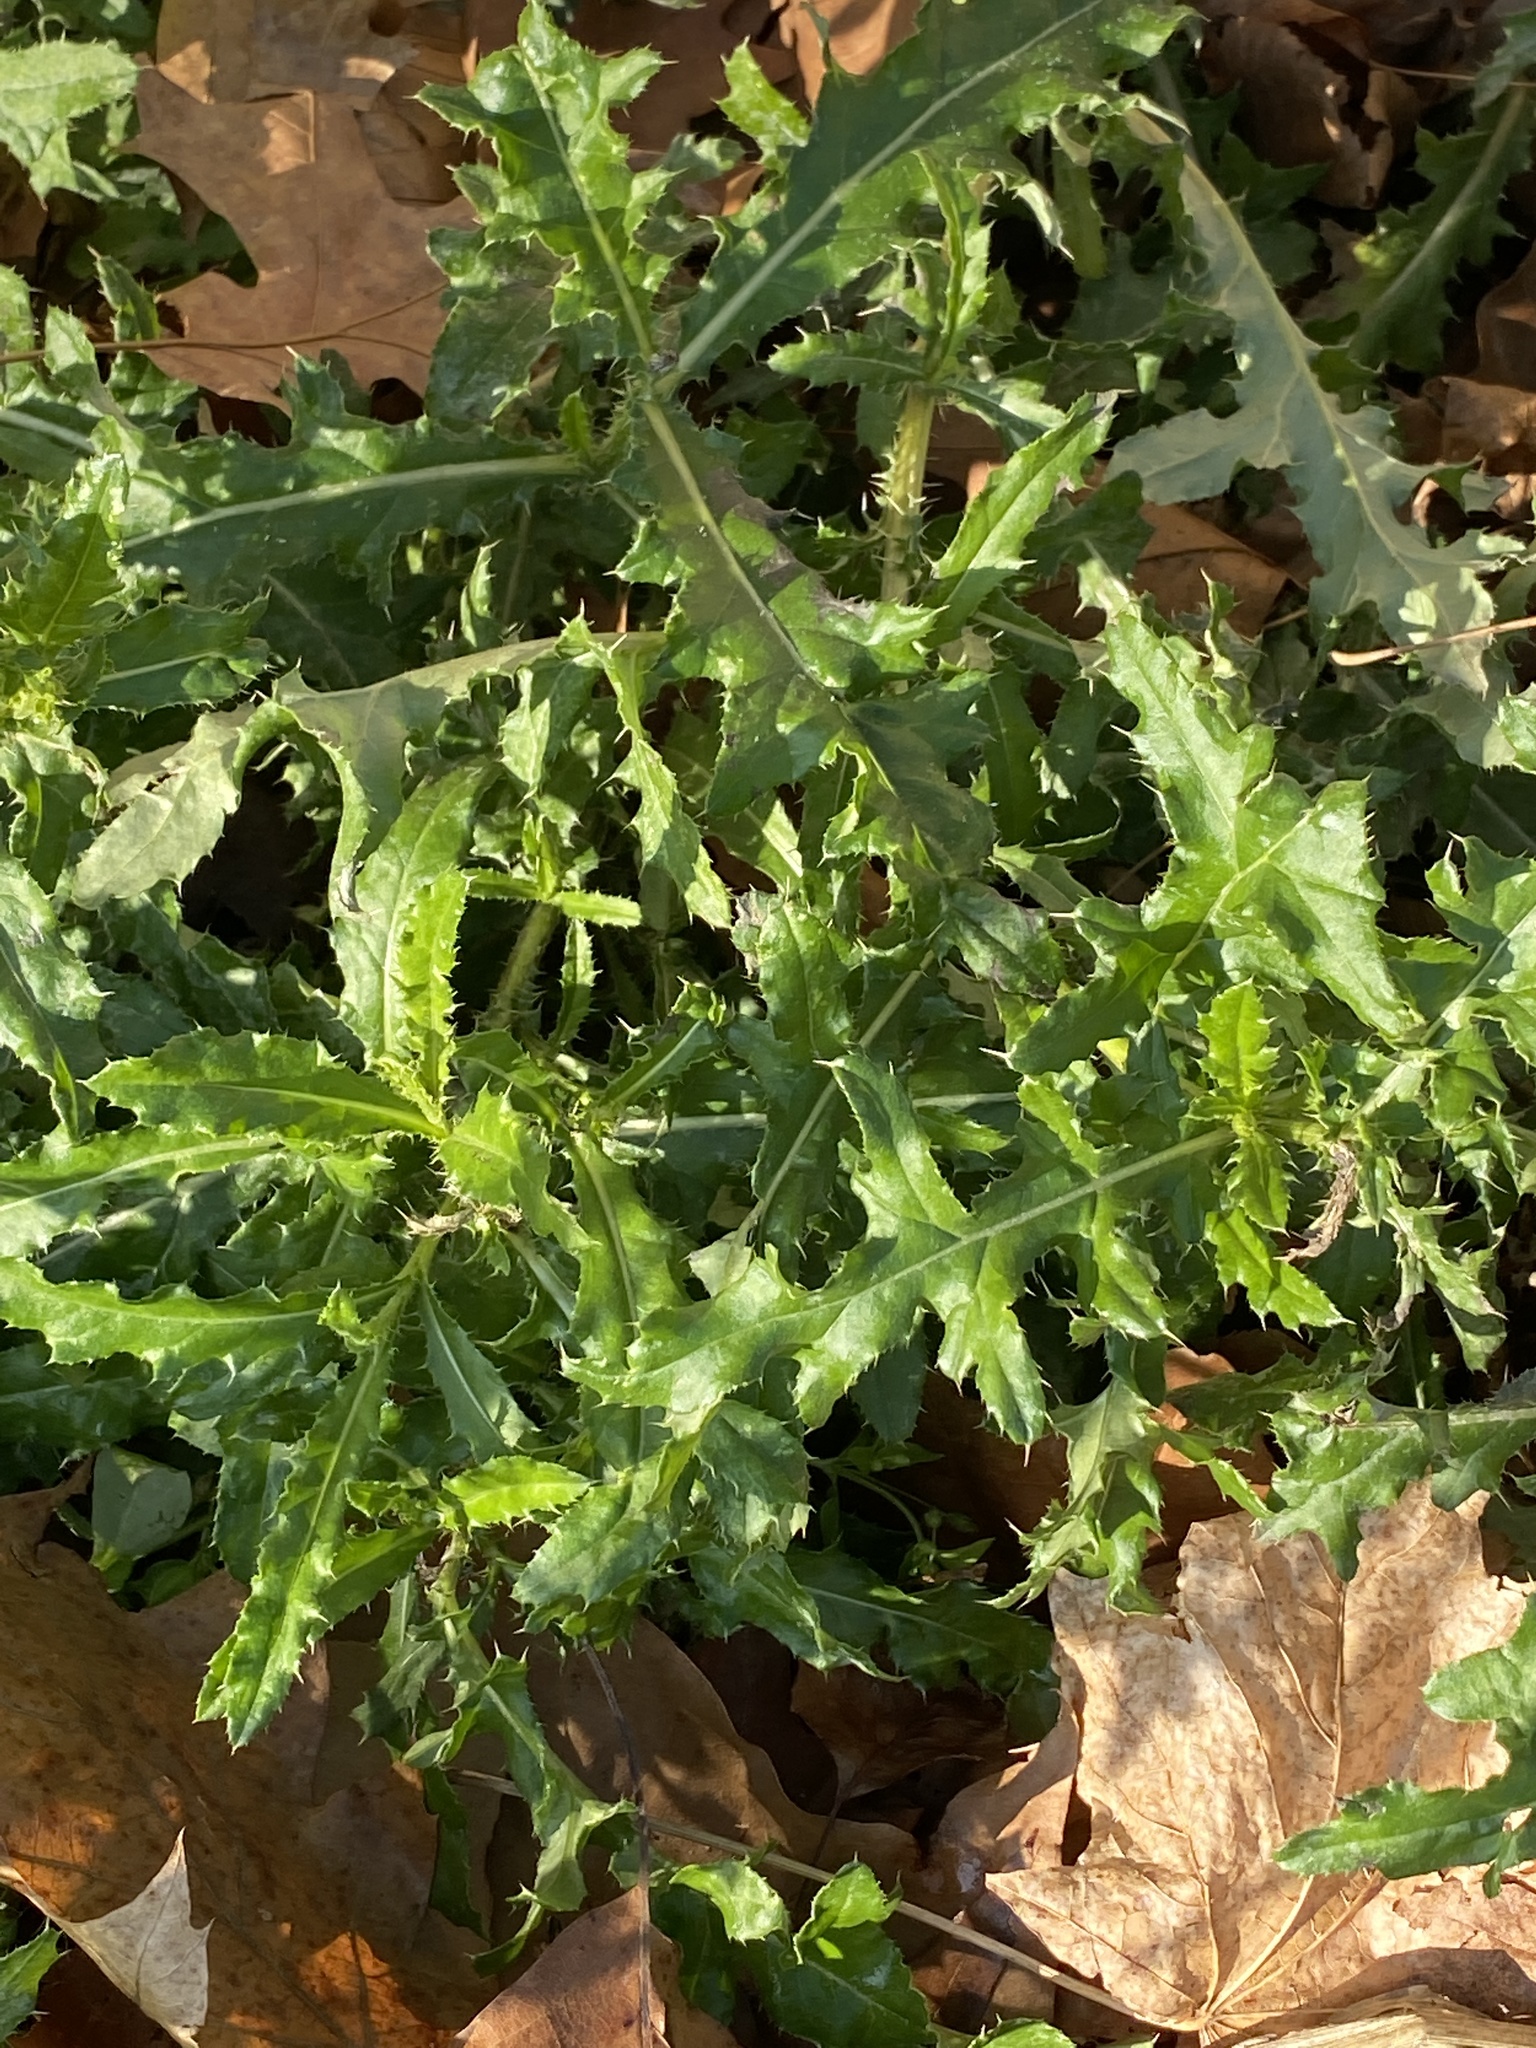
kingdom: Plantae
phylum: Tracheophyta
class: Magnoliopsida
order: Asterales
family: Asteraceae
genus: Cirsium
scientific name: Cirsium arvense
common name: Creeping thistle
